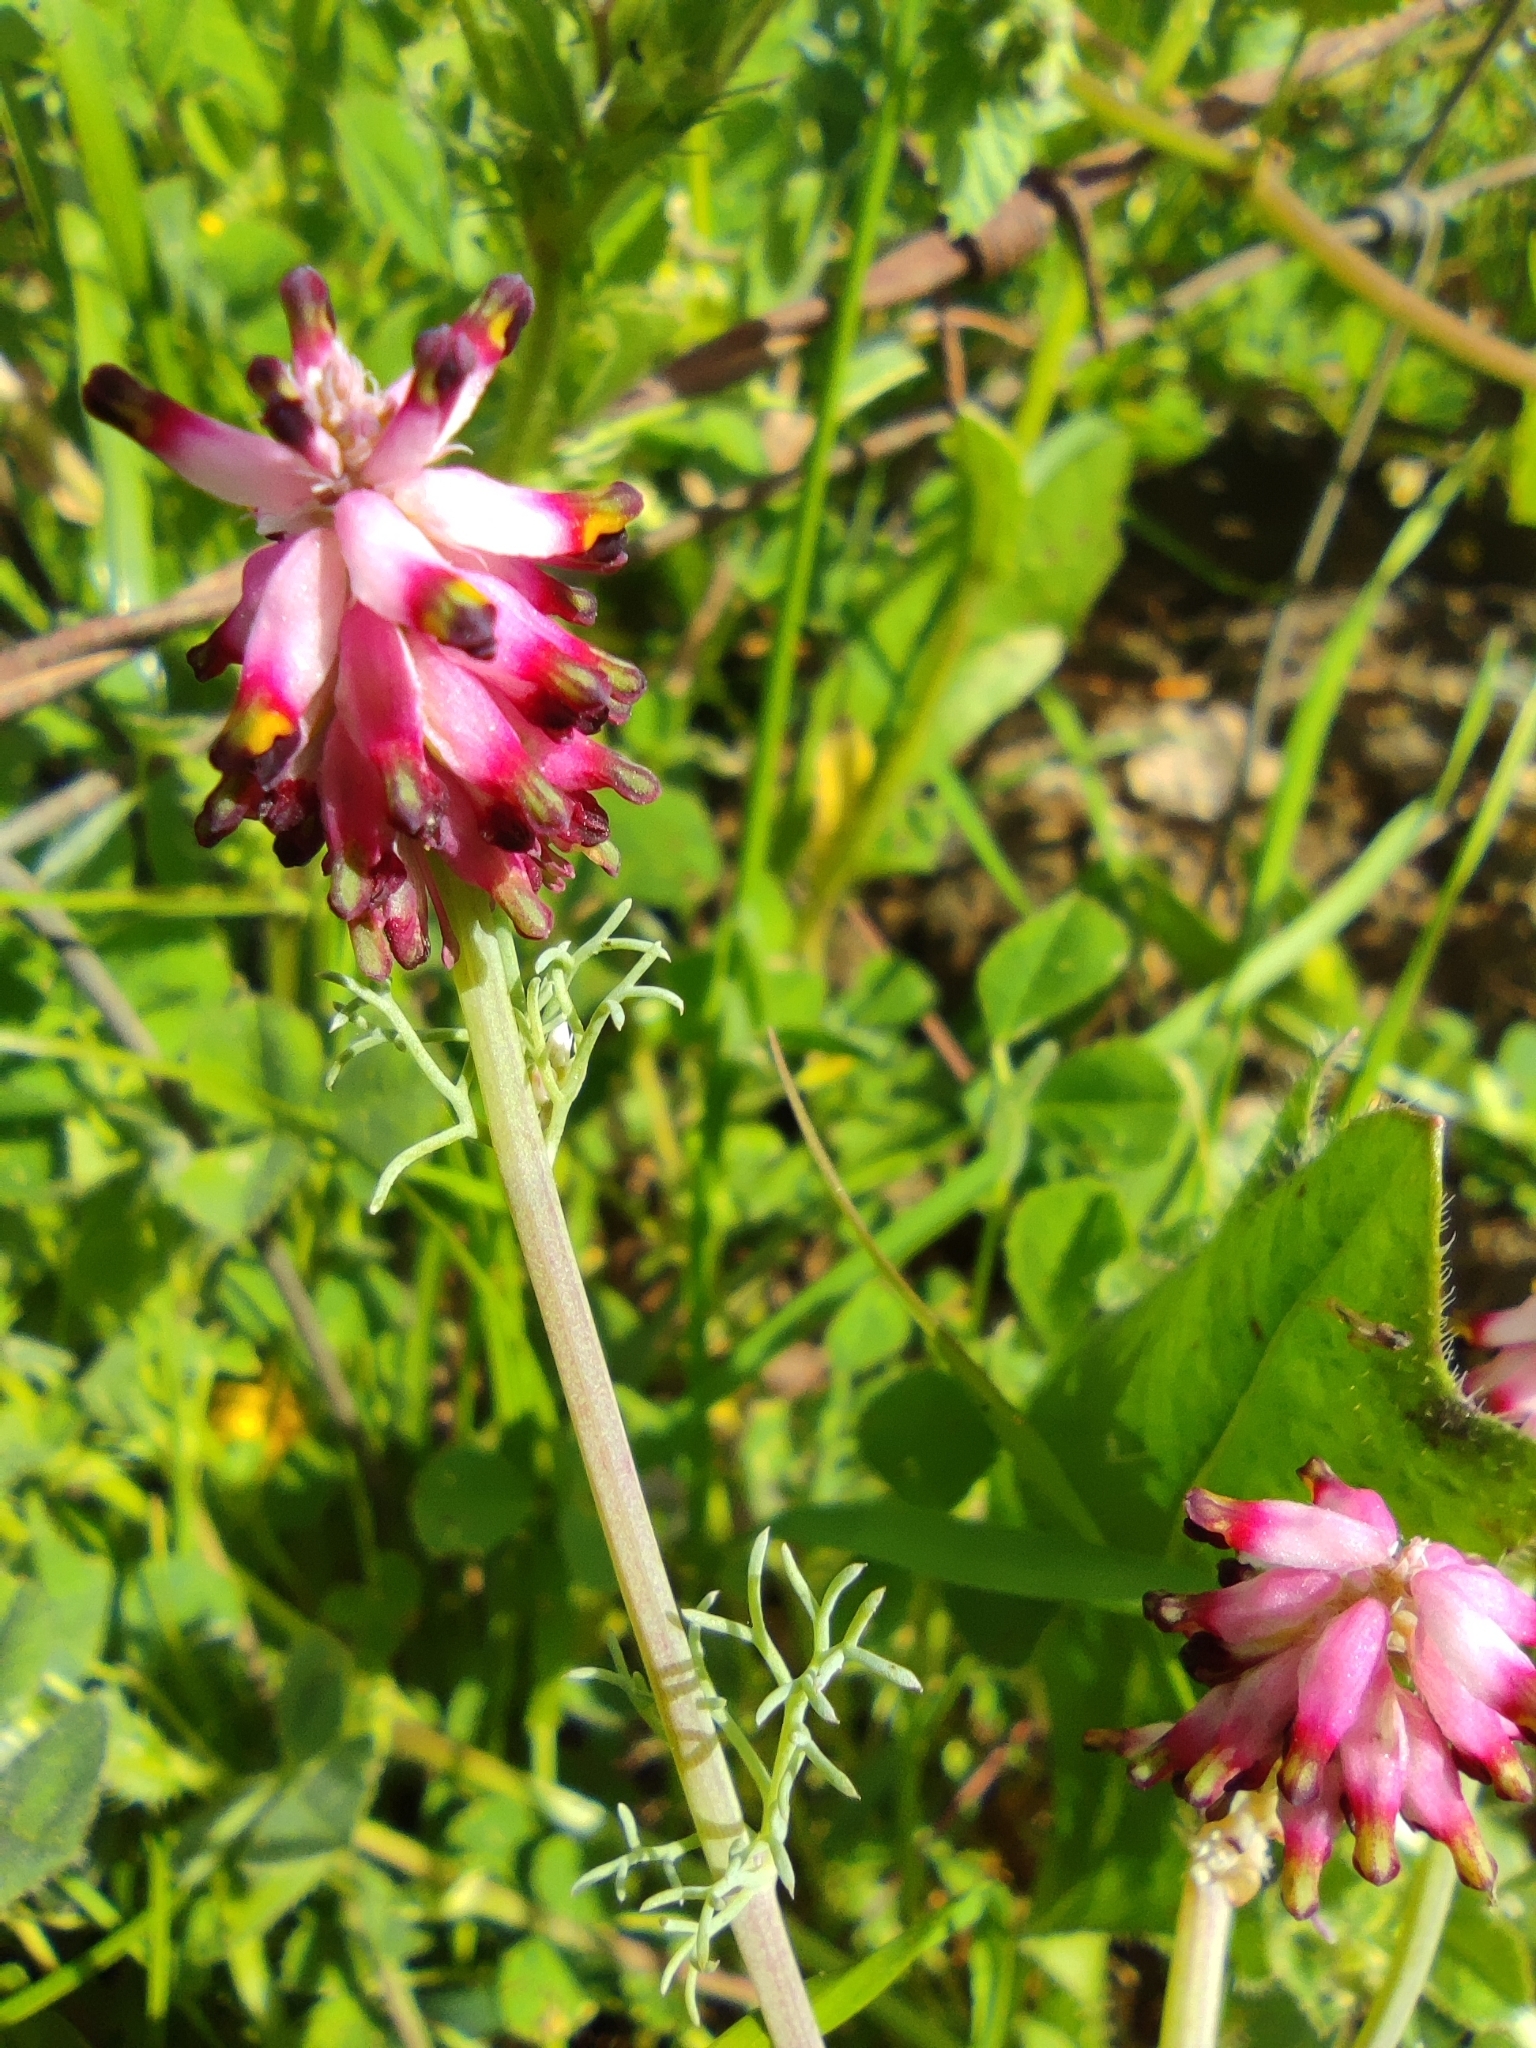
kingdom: Plantae
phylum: Tracheophyta
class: Magnoliopsida
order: Ranunculales
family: Papaveraceae
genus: Platycapnos
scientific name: Platycapnos spicata
